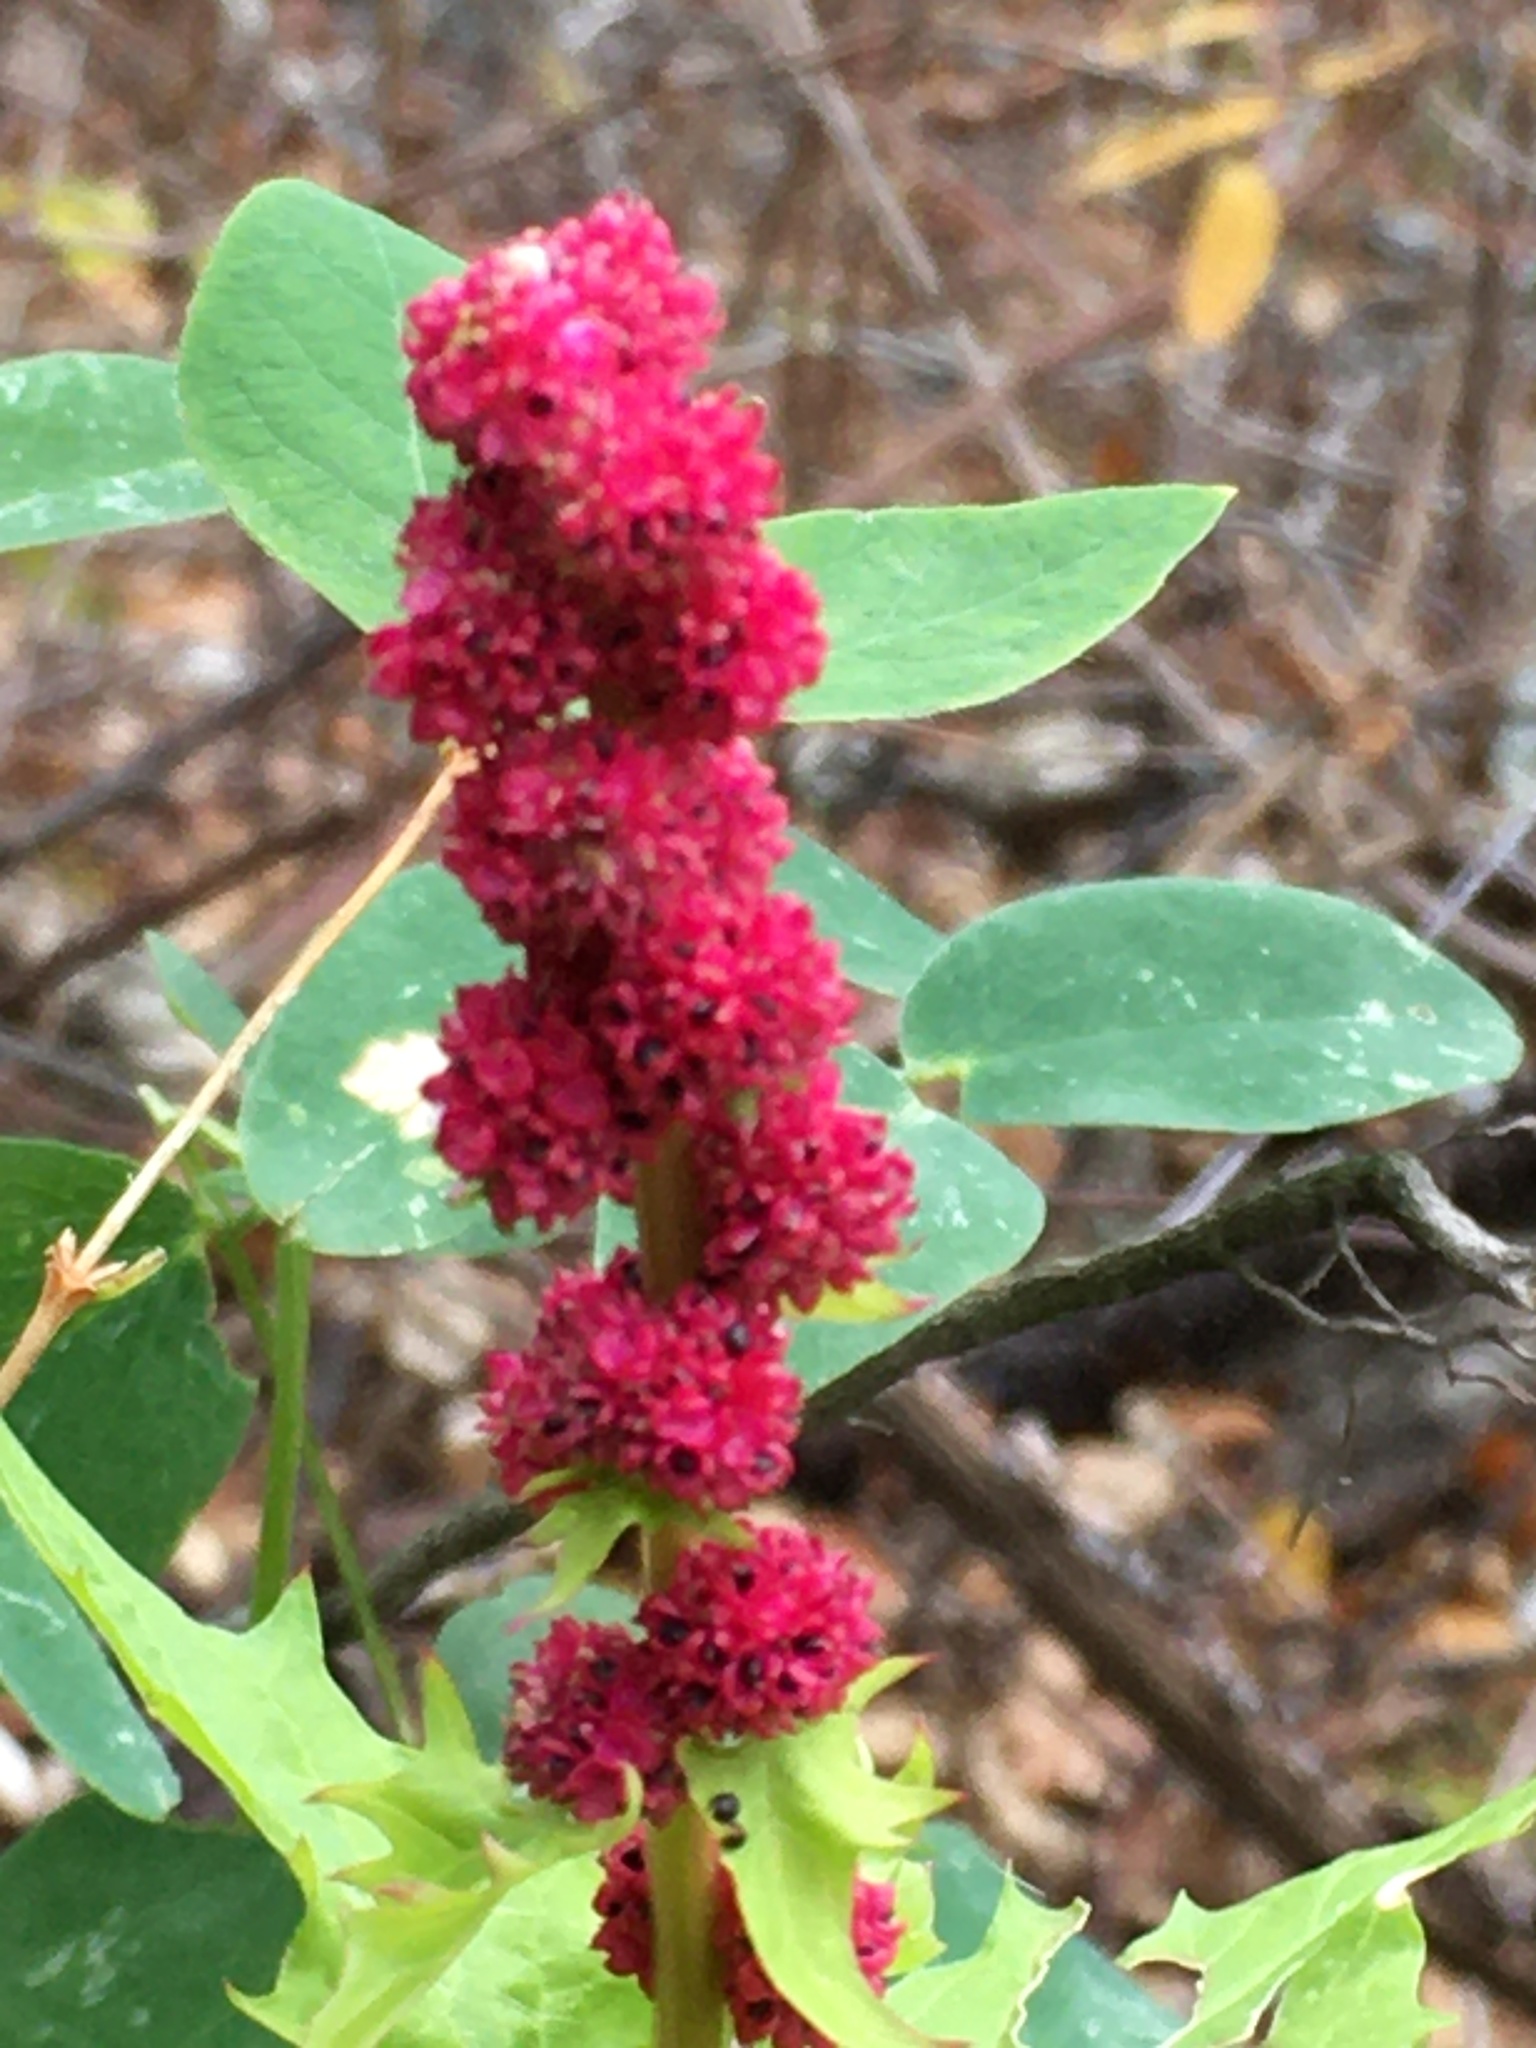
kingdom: Plantae
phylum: Tracheophyta
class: Magnoliopsida
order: Caryophyllales
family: Amaranthaceae
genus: Blitum
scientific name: Blitum capitatum
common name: Strawberry-blight
